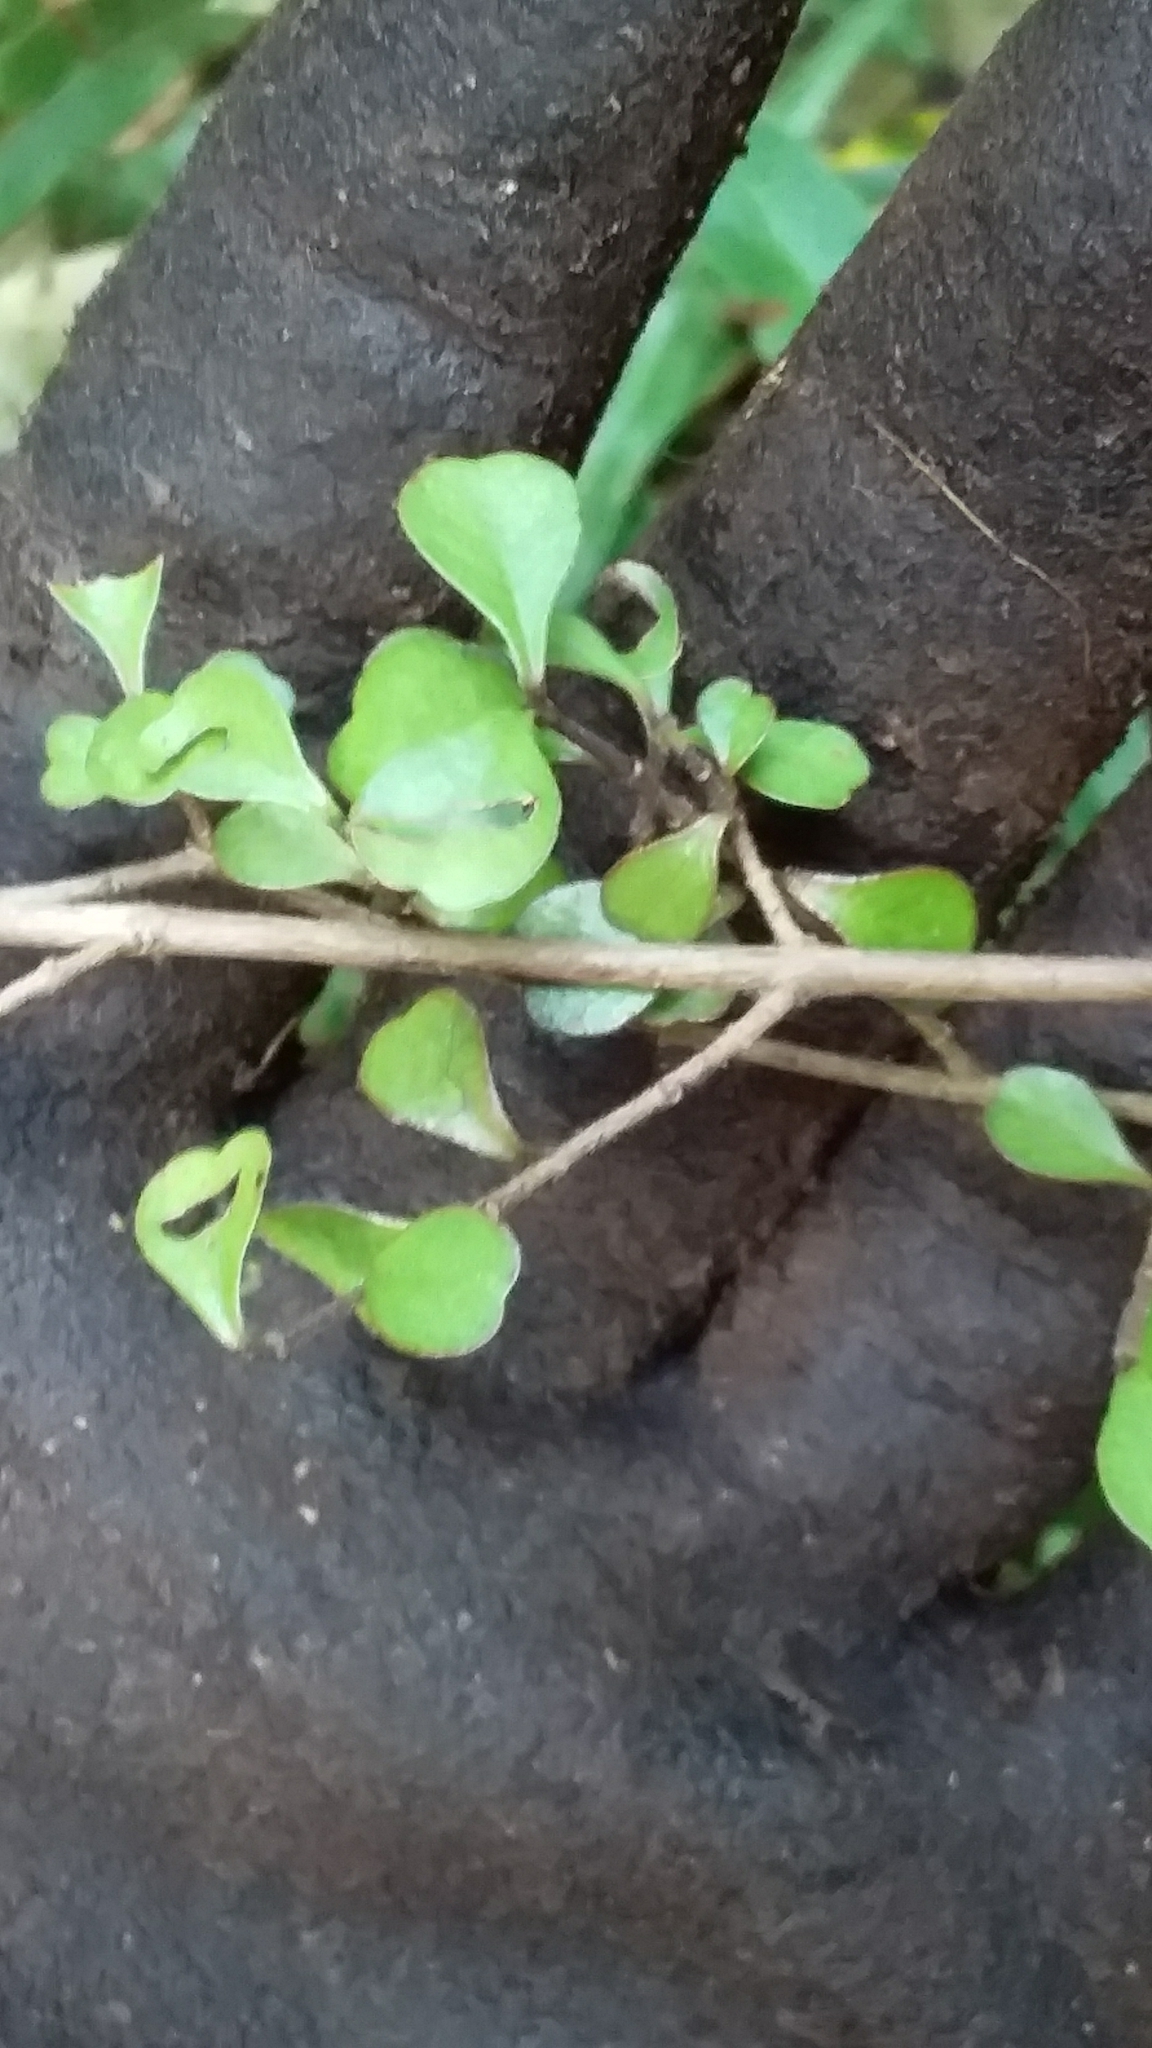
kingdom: Plantae
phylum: Tracheophyta
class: Magnoliopsida
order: Myrtales
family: Myrtaceae
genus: Lophomyrtus
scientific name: Lophomyrtus obcordata
